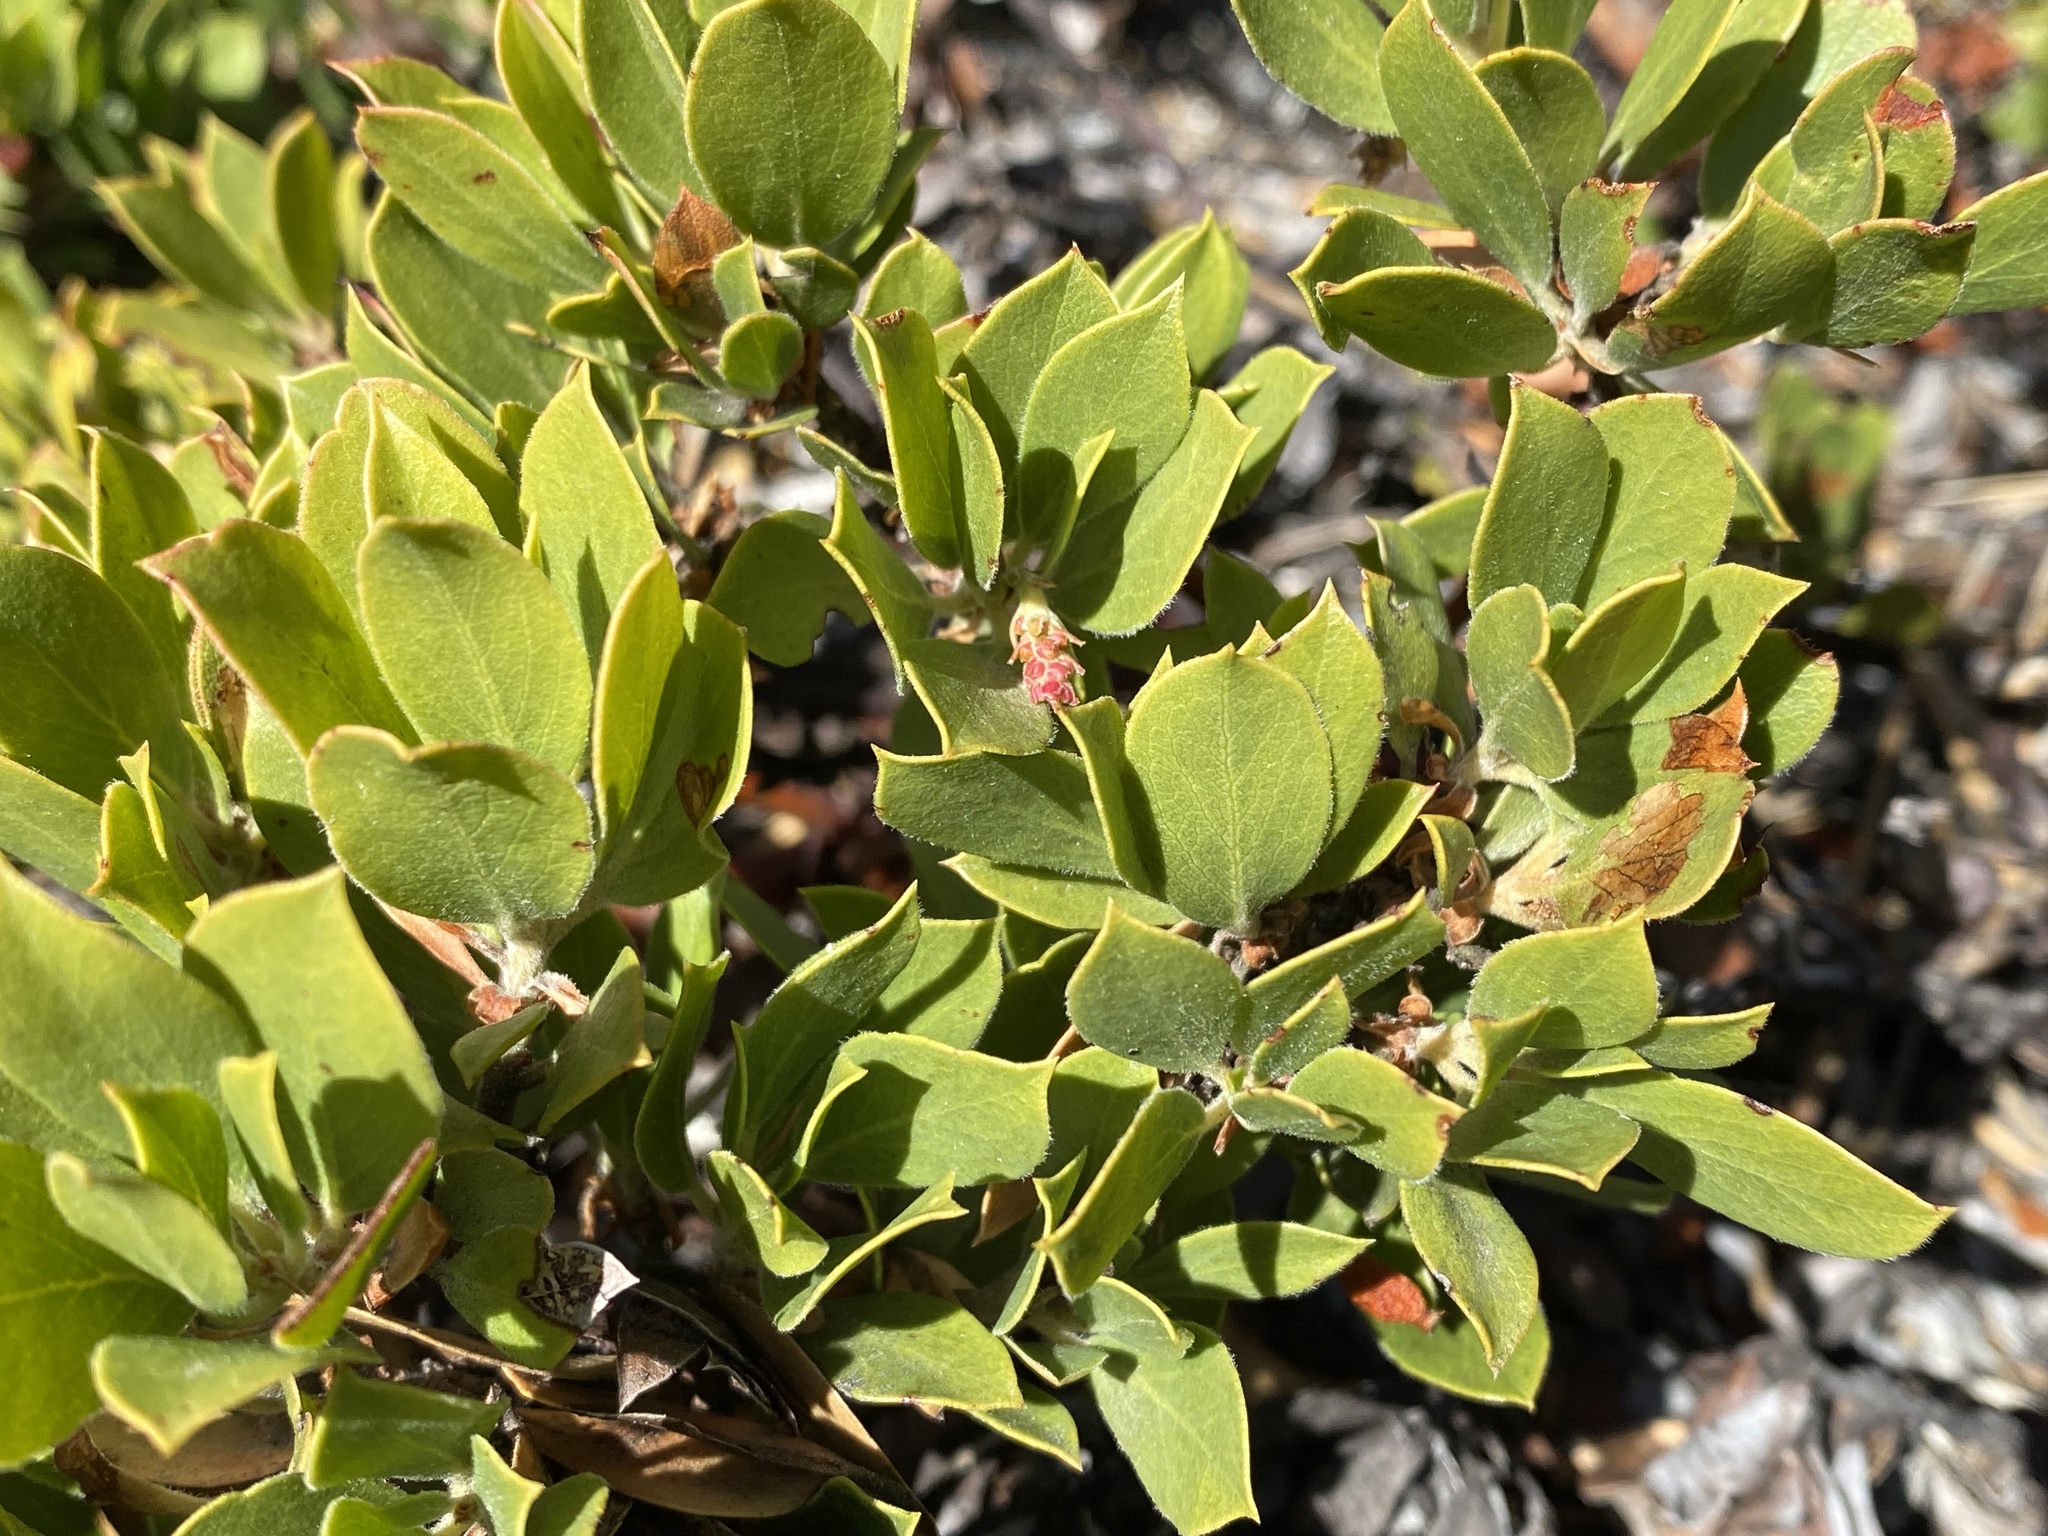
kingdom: Plantae
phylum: Tracheophyta
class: Magnoliopsida
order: Ericales
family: Ericaceae
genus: Arctostaphylos
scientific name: Arctostaphylos nevadensis
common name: Pinemat manzanita
